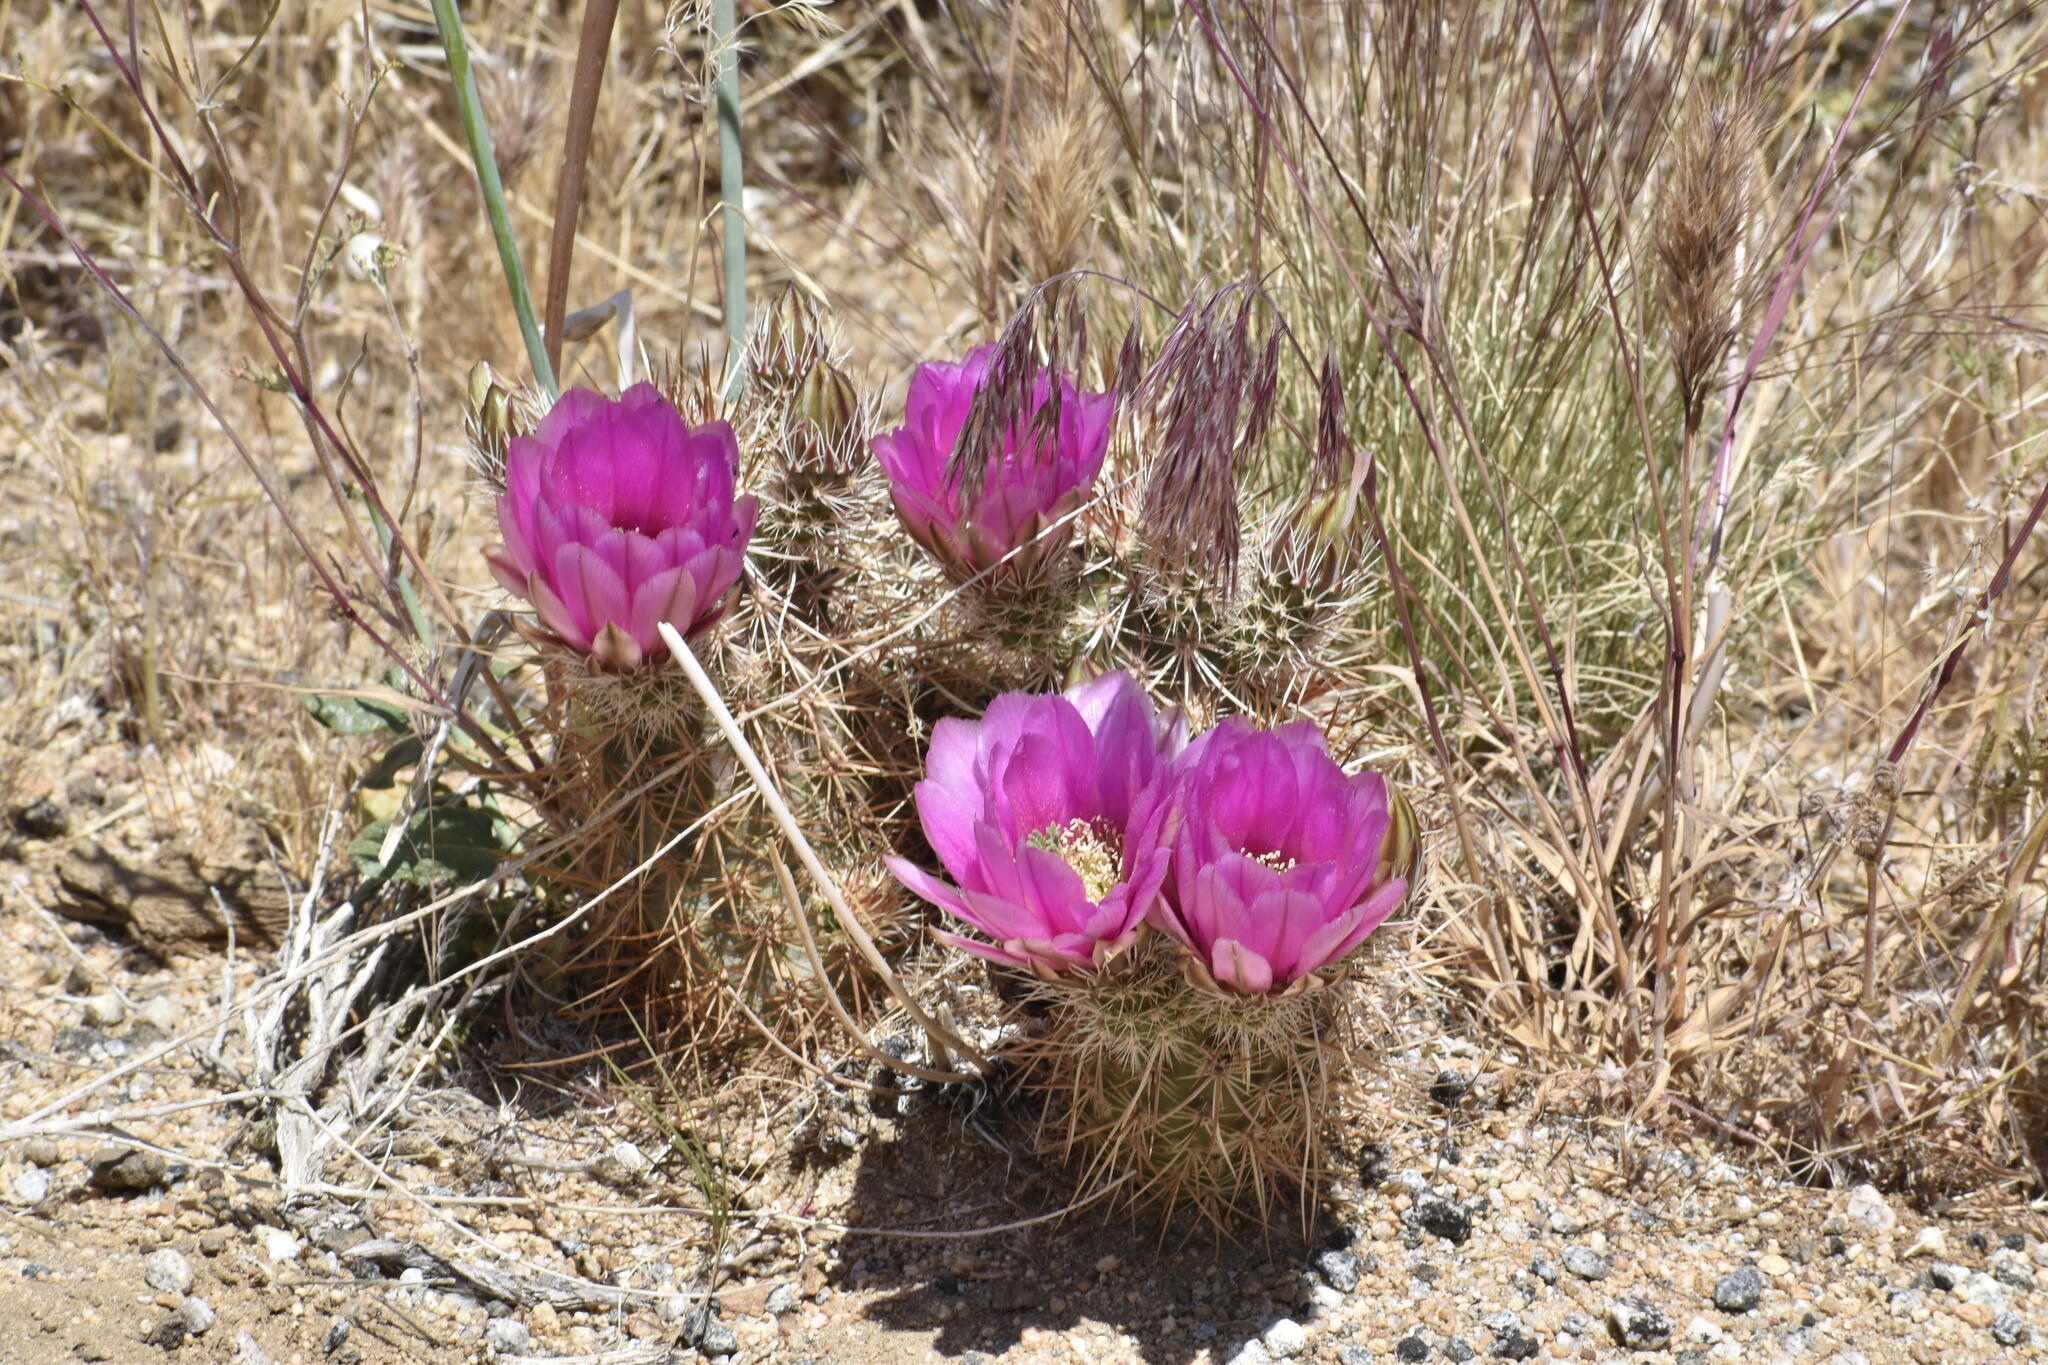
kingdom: Plantae
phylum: Tracheophyta
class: Magnoliopsida
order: Caryophyllales
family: Cactaceae
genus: Echinocereus
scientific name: Echinocereus engelmannii
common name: Engelmann's hedgehog cactus
